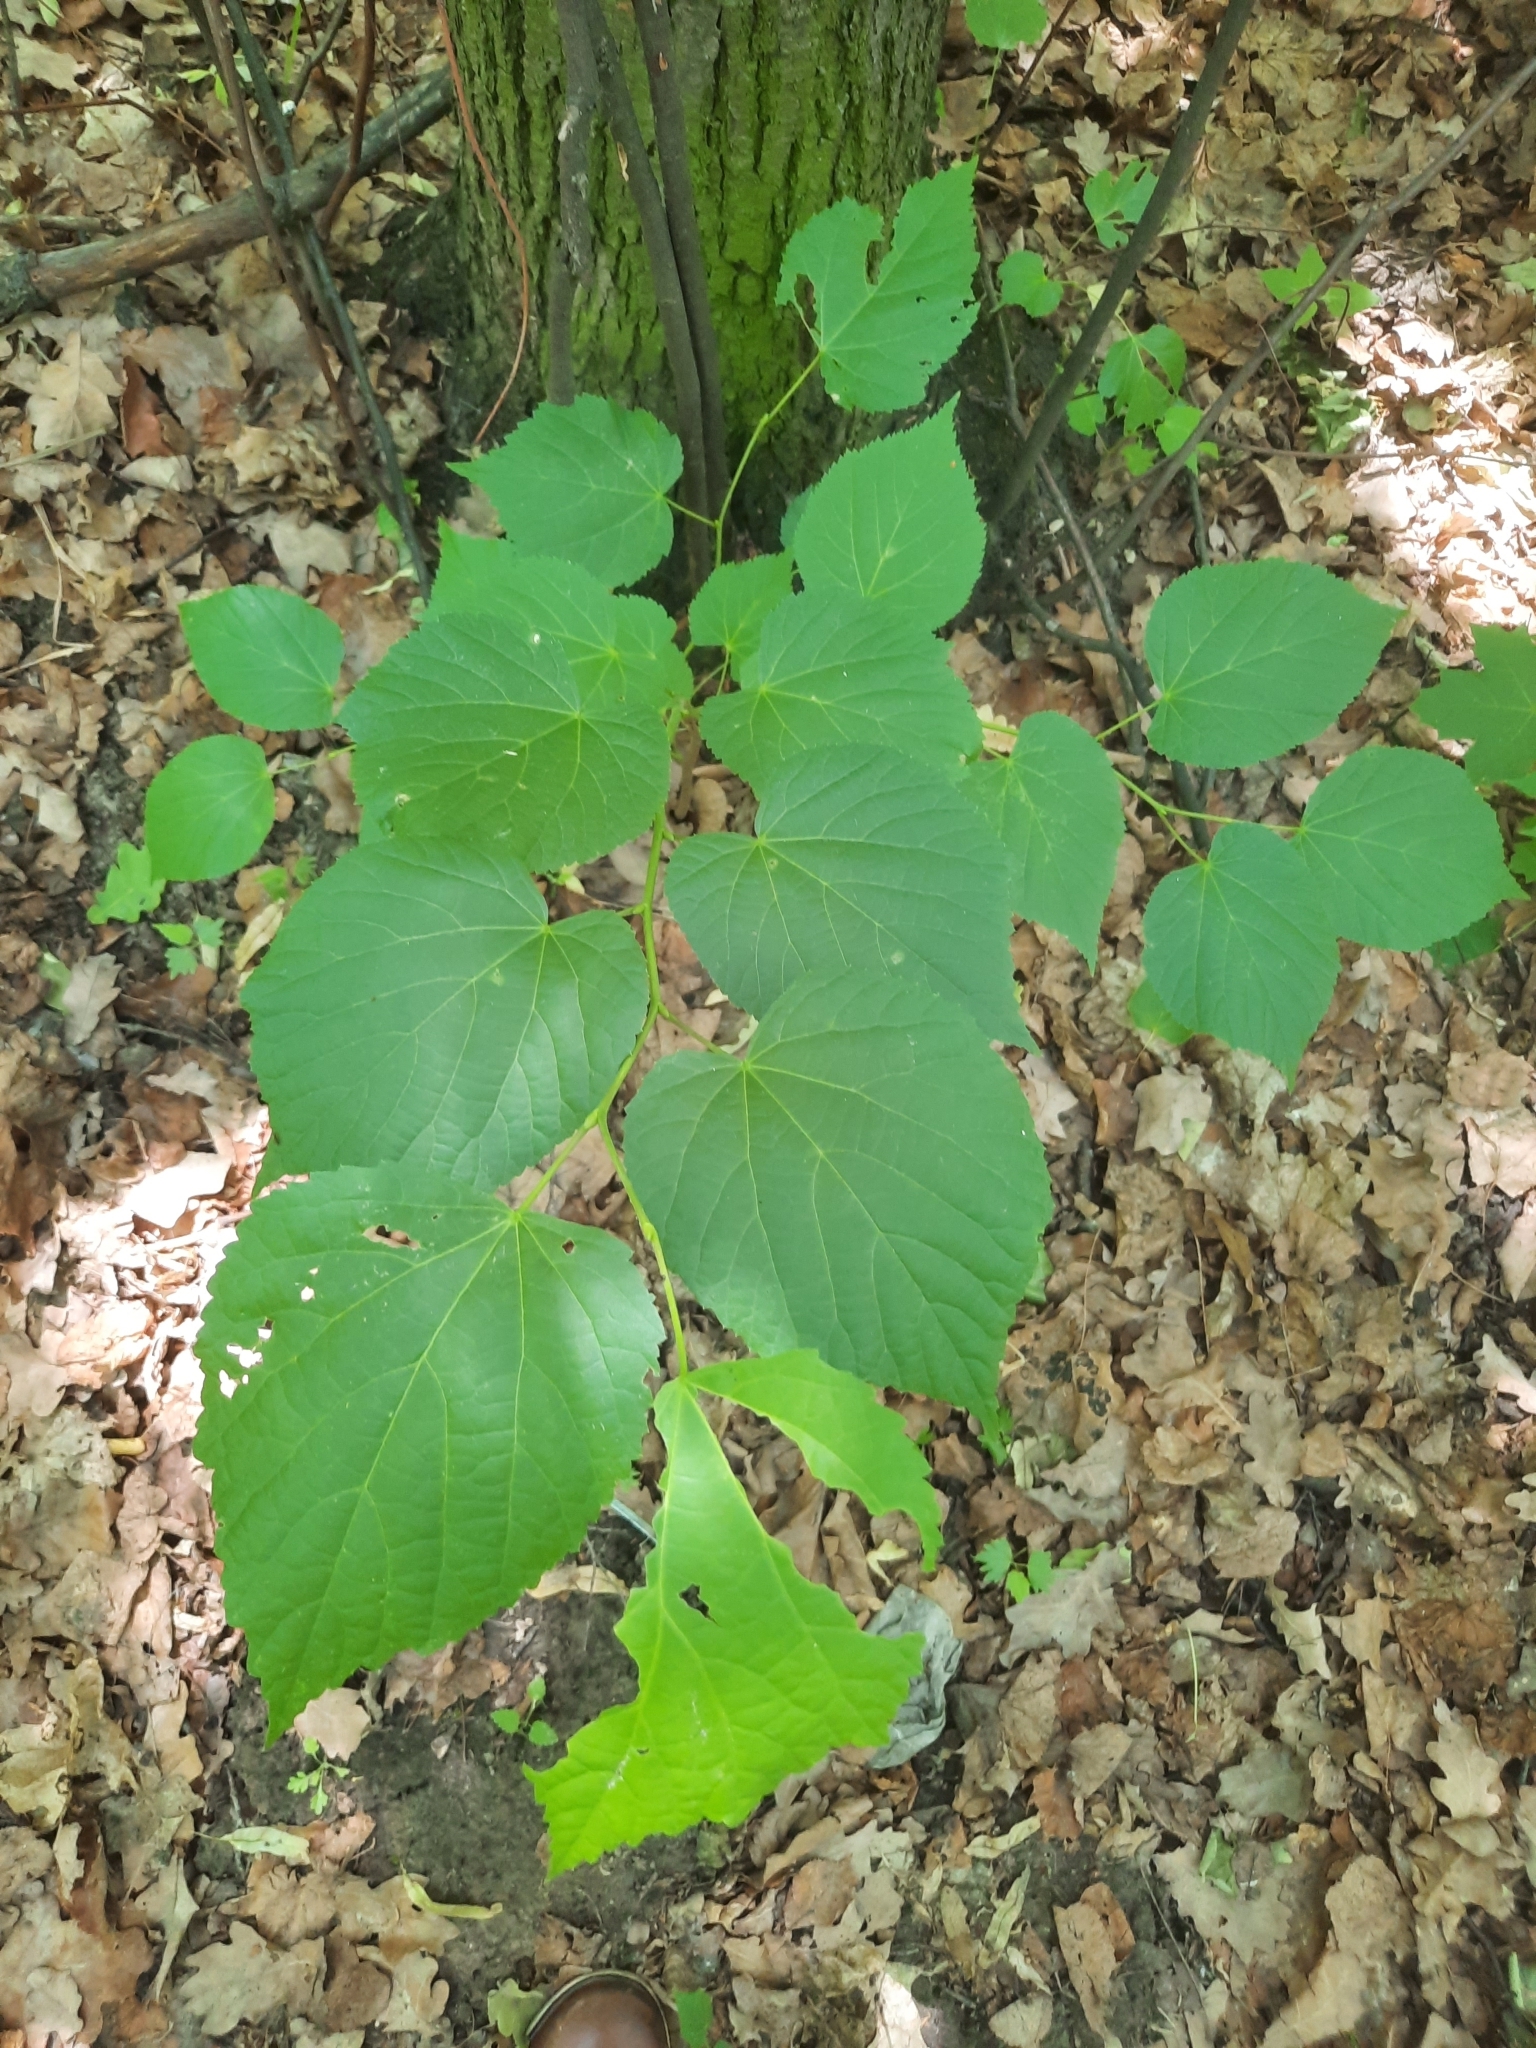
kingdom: Plantae
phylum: Tracheophyta
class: Magnoliopsida
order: Malvales
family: Malvaceae
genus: Tilia
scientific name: Tilia cordata
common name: Small-leaved lime
